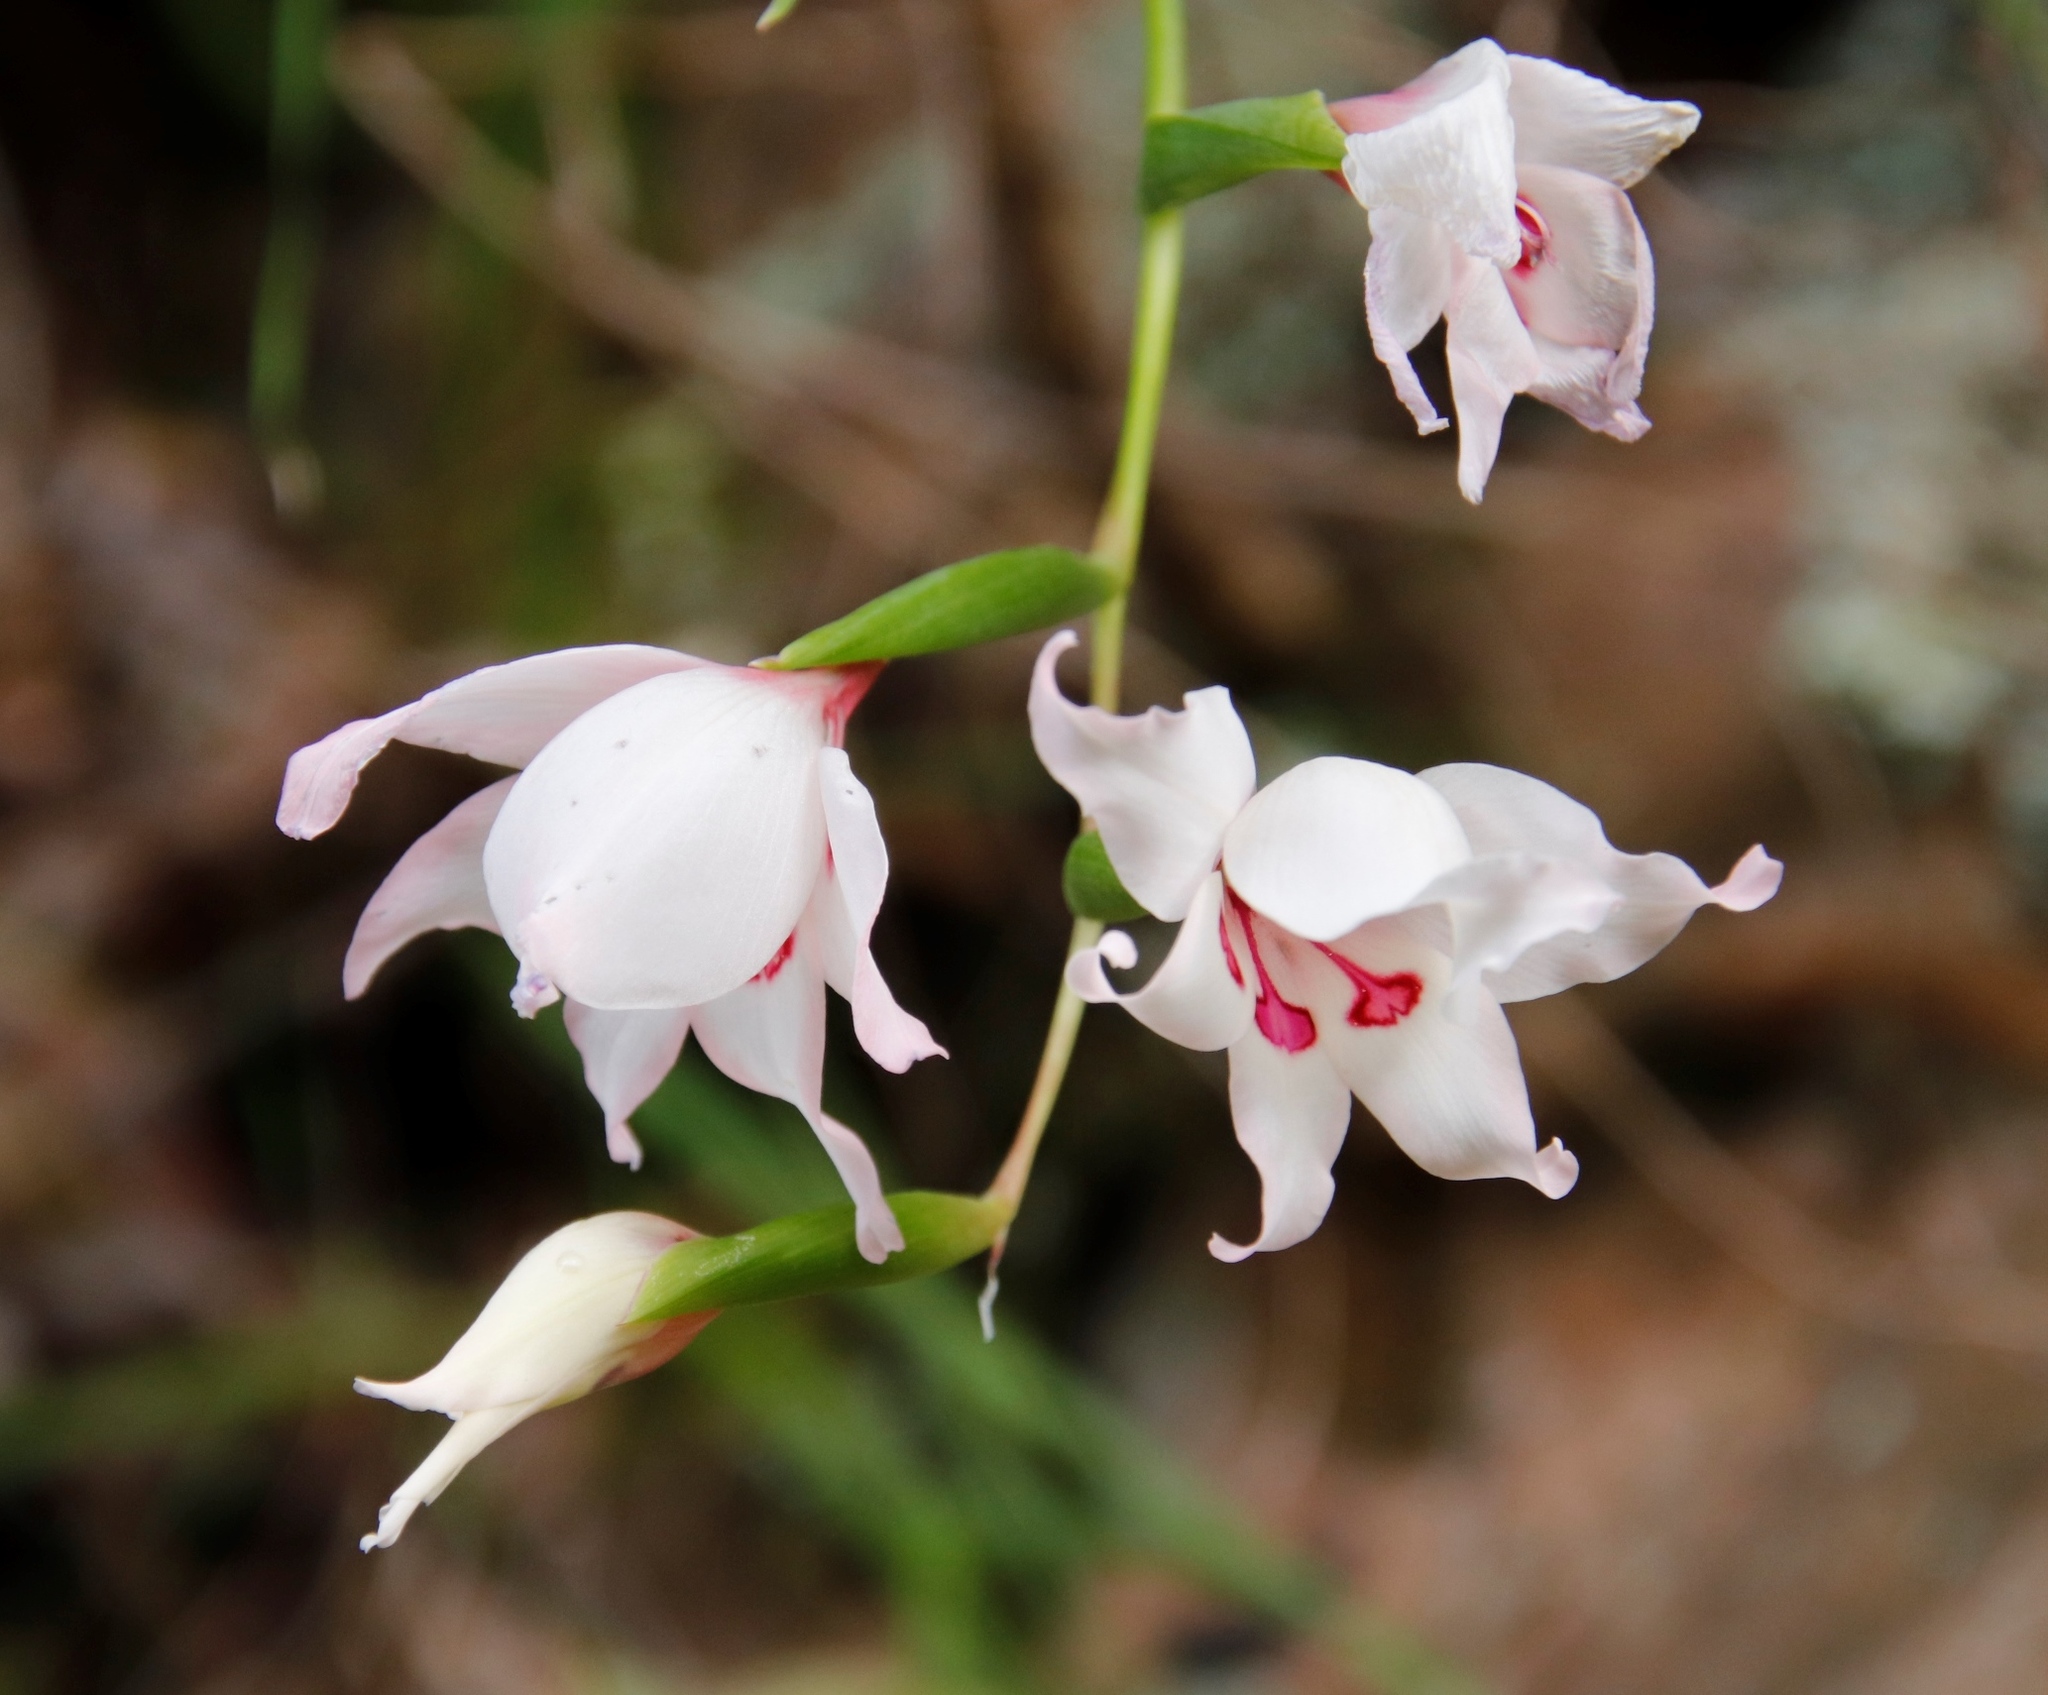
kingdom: Plantae
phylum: Tracheophyta
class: Liliopsida
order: Asparagales
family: Iridaceae
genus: Gladiolus
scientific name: Gladiolus carneus
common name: Painted-lady
